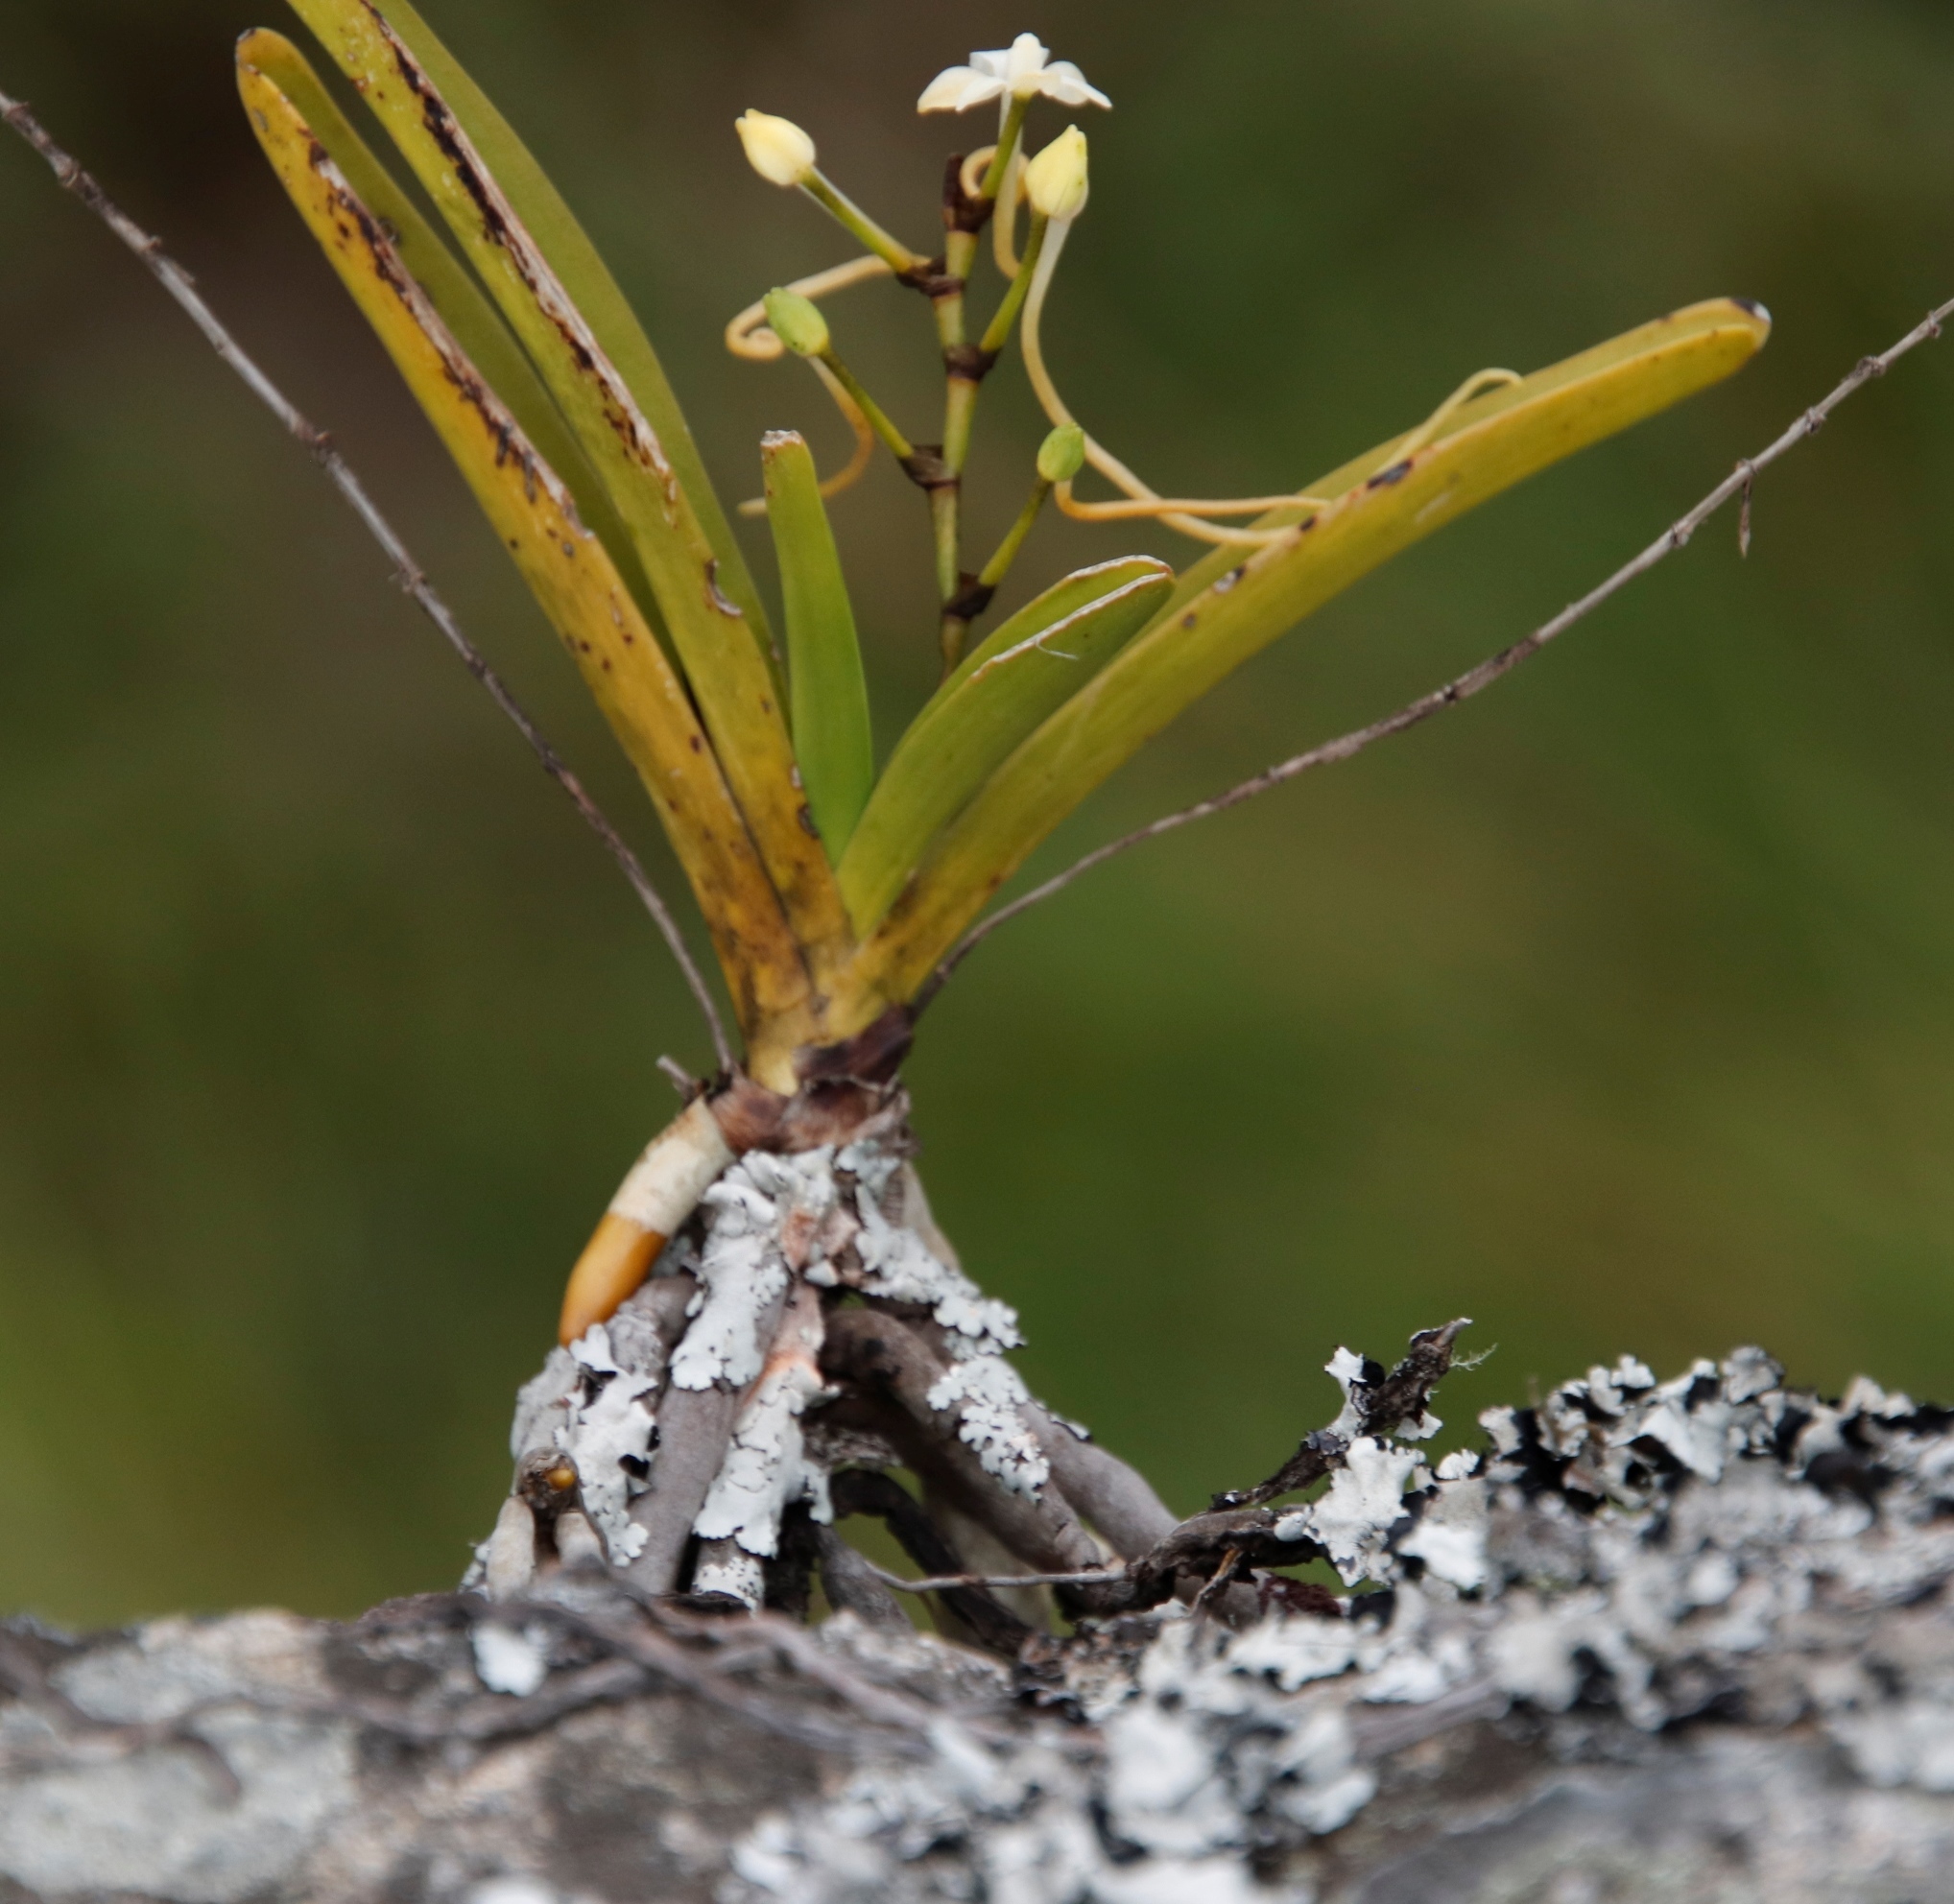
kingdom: Plantae
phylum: Tracheophyta
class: Liliopsida
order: Asparagales
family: Orchidaceae
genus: Rangaeris
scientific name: Rangaeris muscicola
